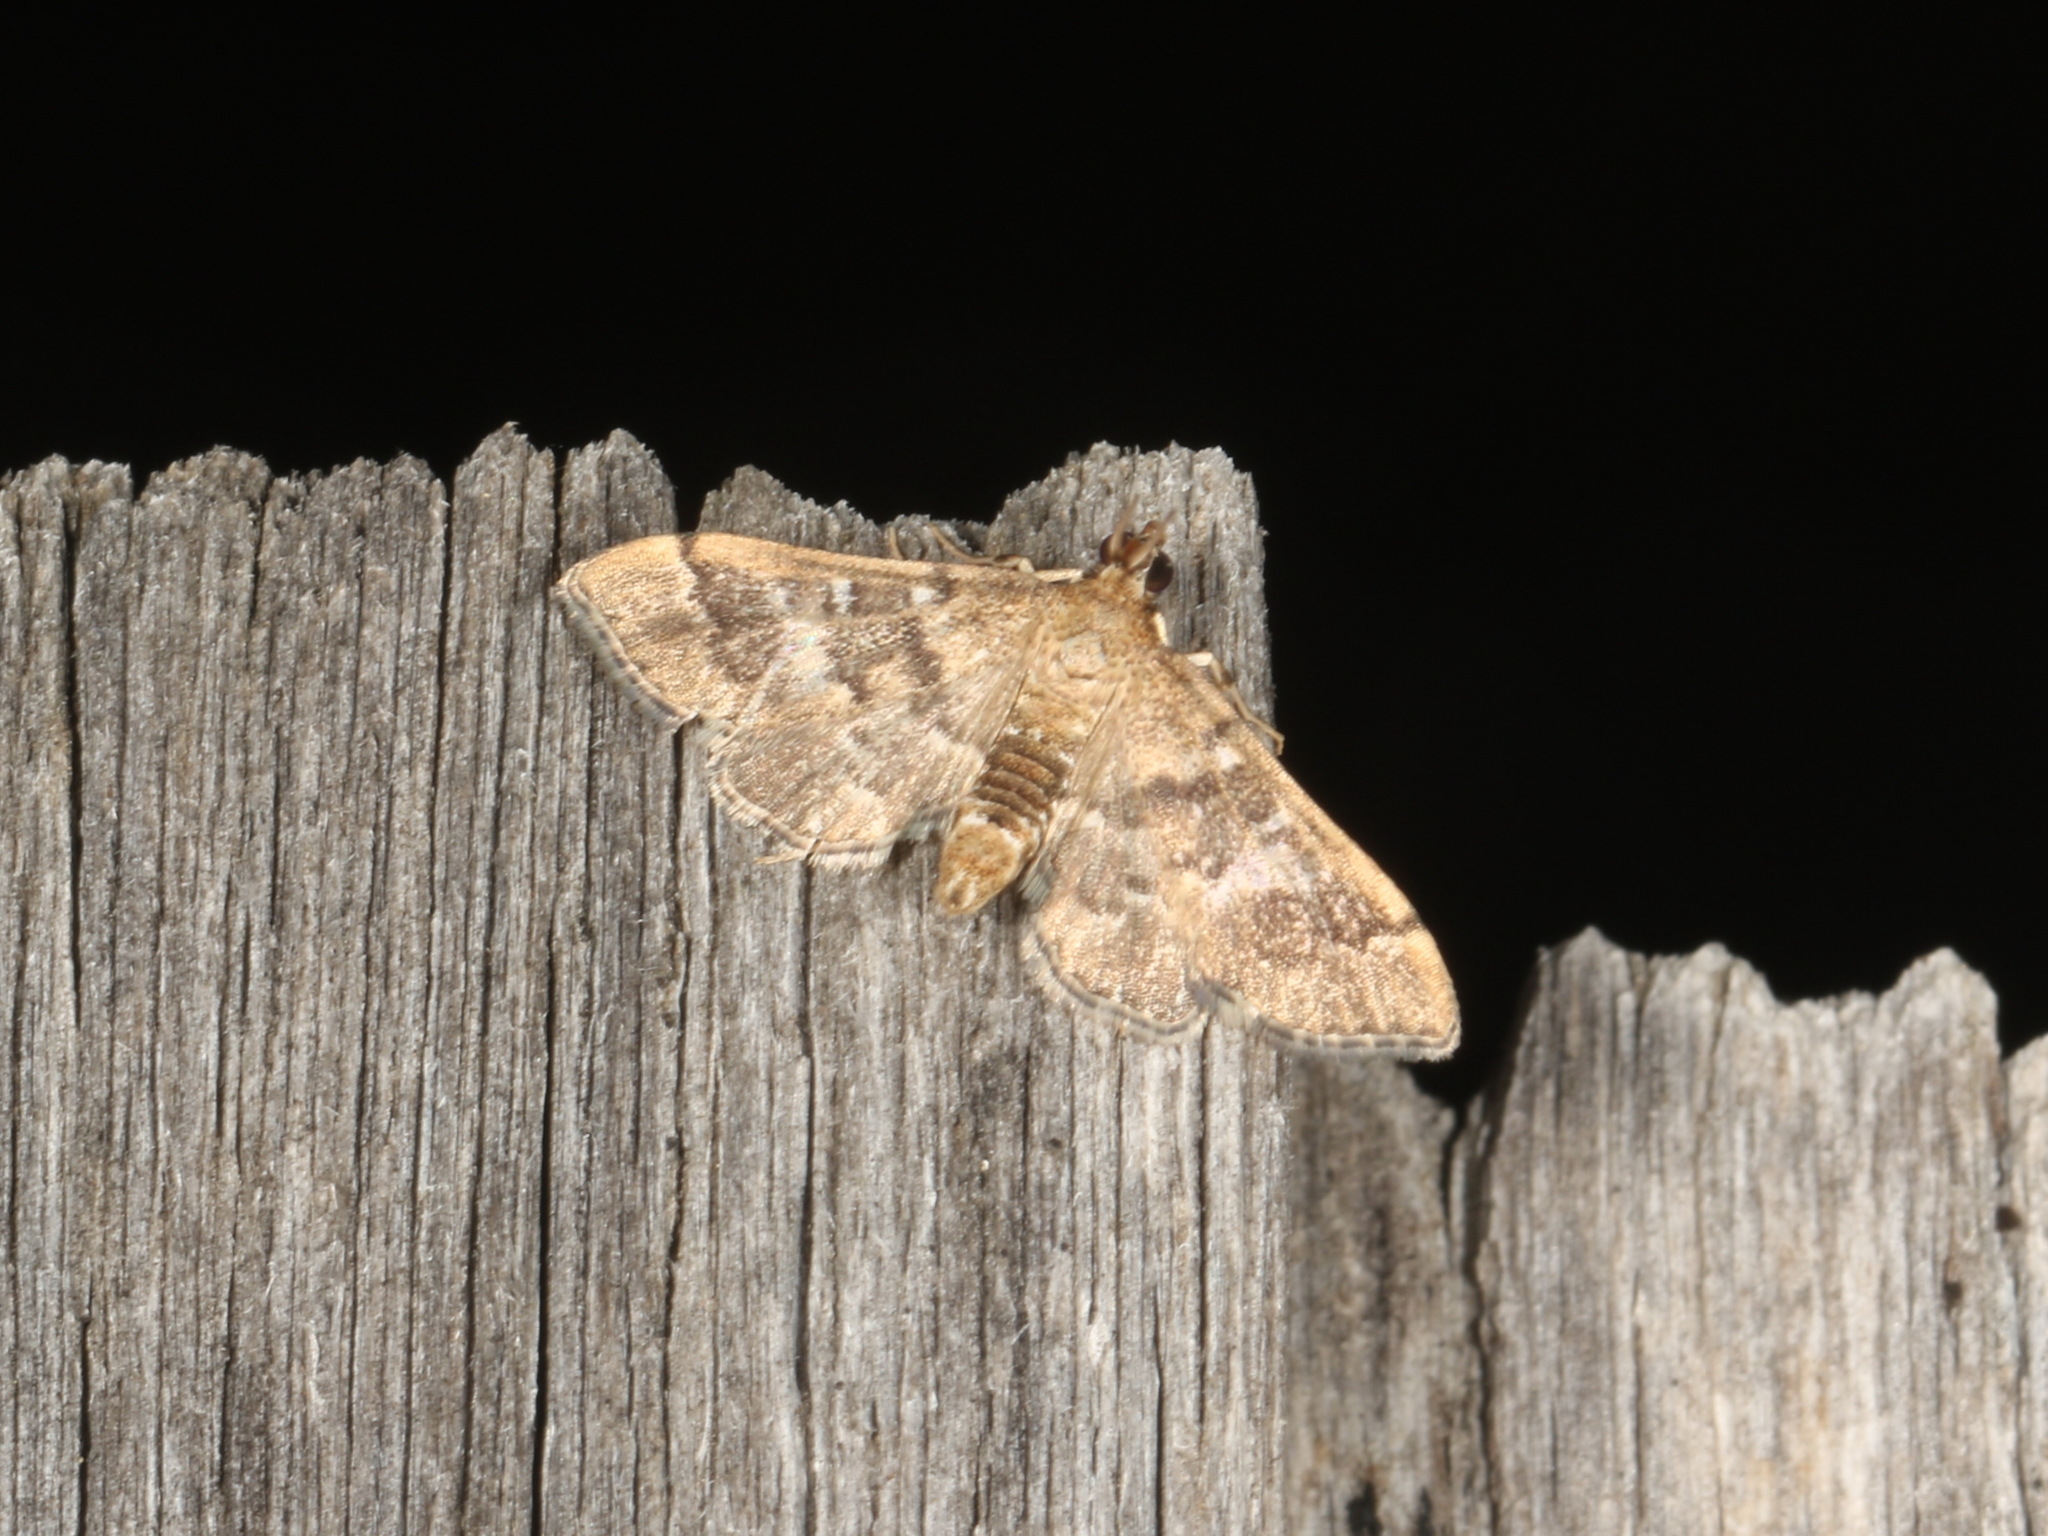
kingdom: Animalia
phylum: Arthropoda
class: Insecta
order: Lepidoptera
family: Crambidae
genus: Nacoleia
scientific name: Nacoleia rhoeoalis
